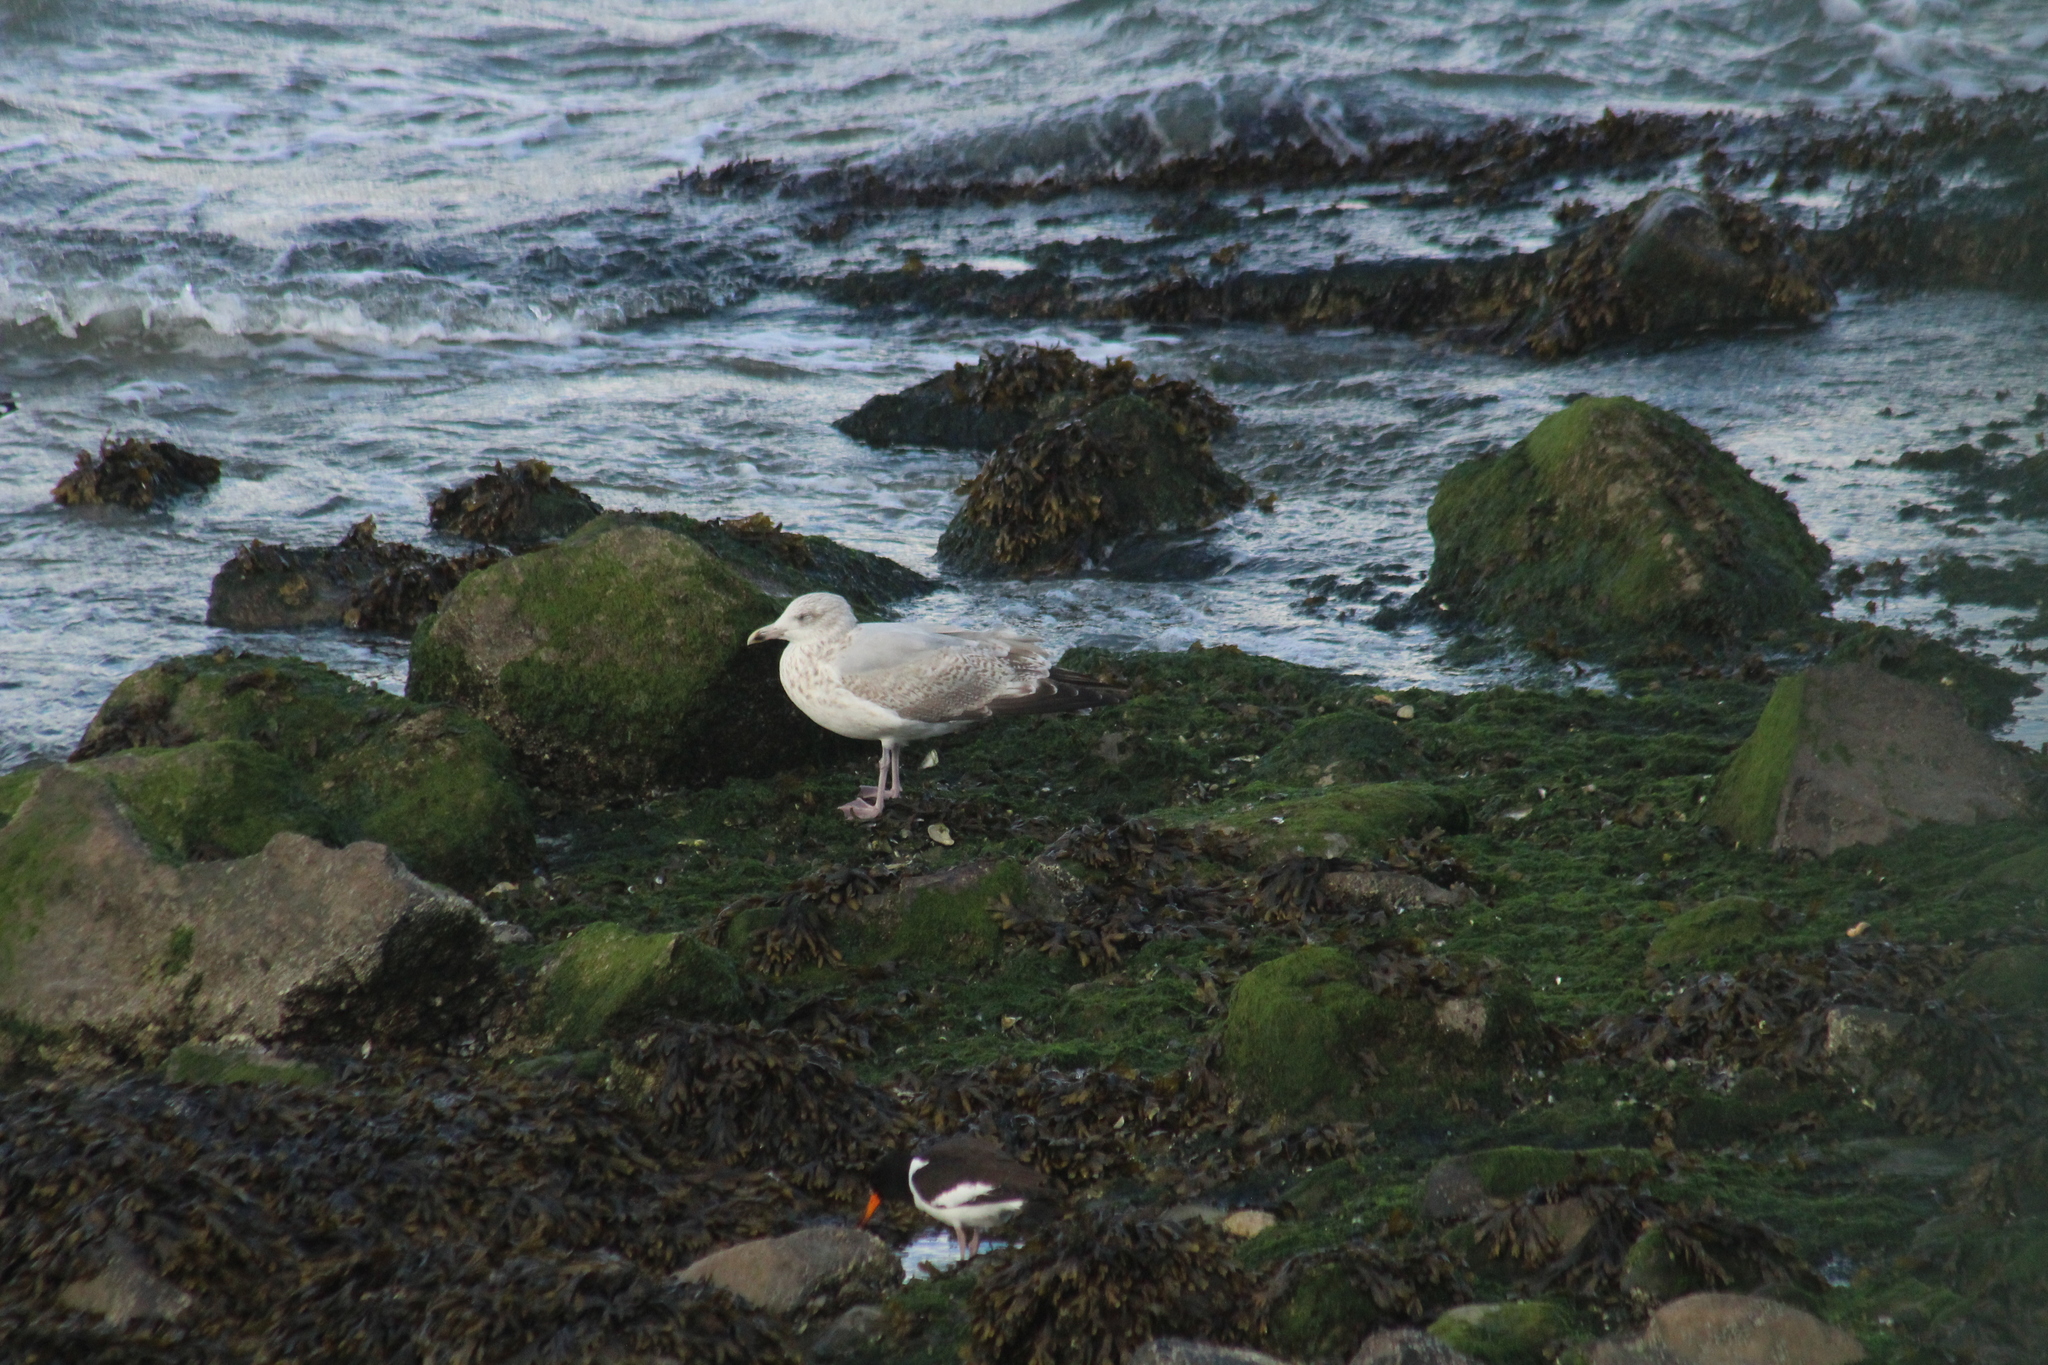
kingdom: Animalia
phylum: Chordata
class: Aves
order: Charadriiformes
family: Laridae
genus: Larus
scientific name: Larus argentatus
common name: Herring gull
